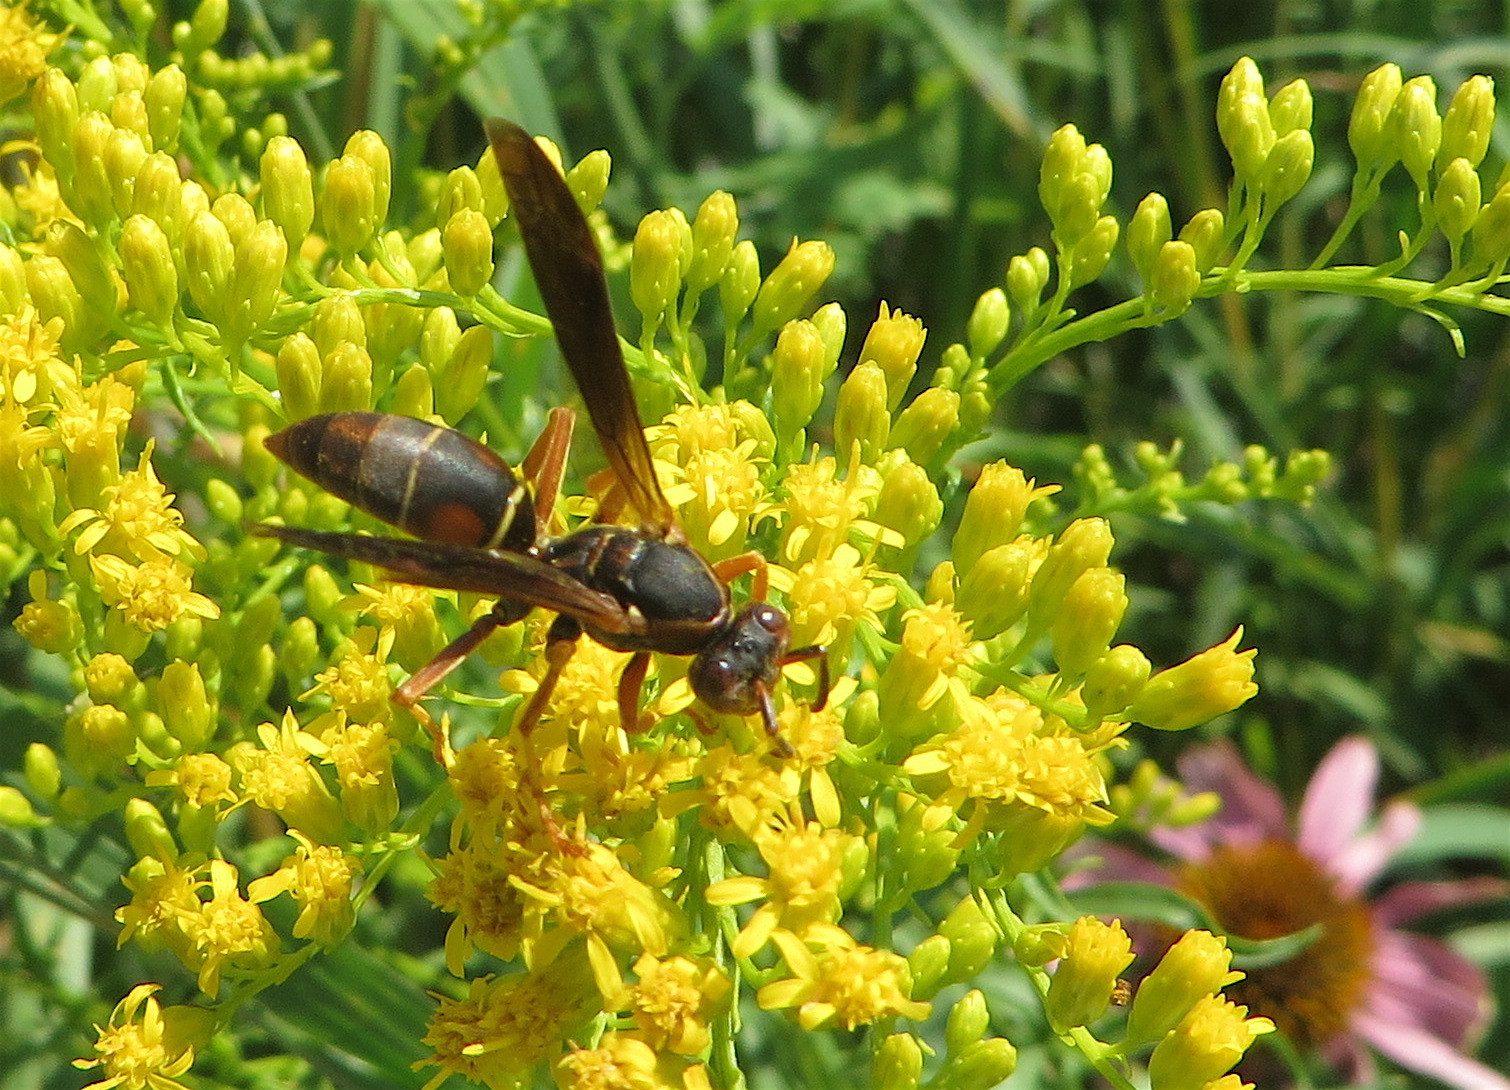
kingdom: Animalia
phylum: Arthropoda
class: Insecta
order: Hymenoptera
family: Eumenidae
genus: Polistes
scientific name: Polistes fuscatus
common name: Dark paper wasp
